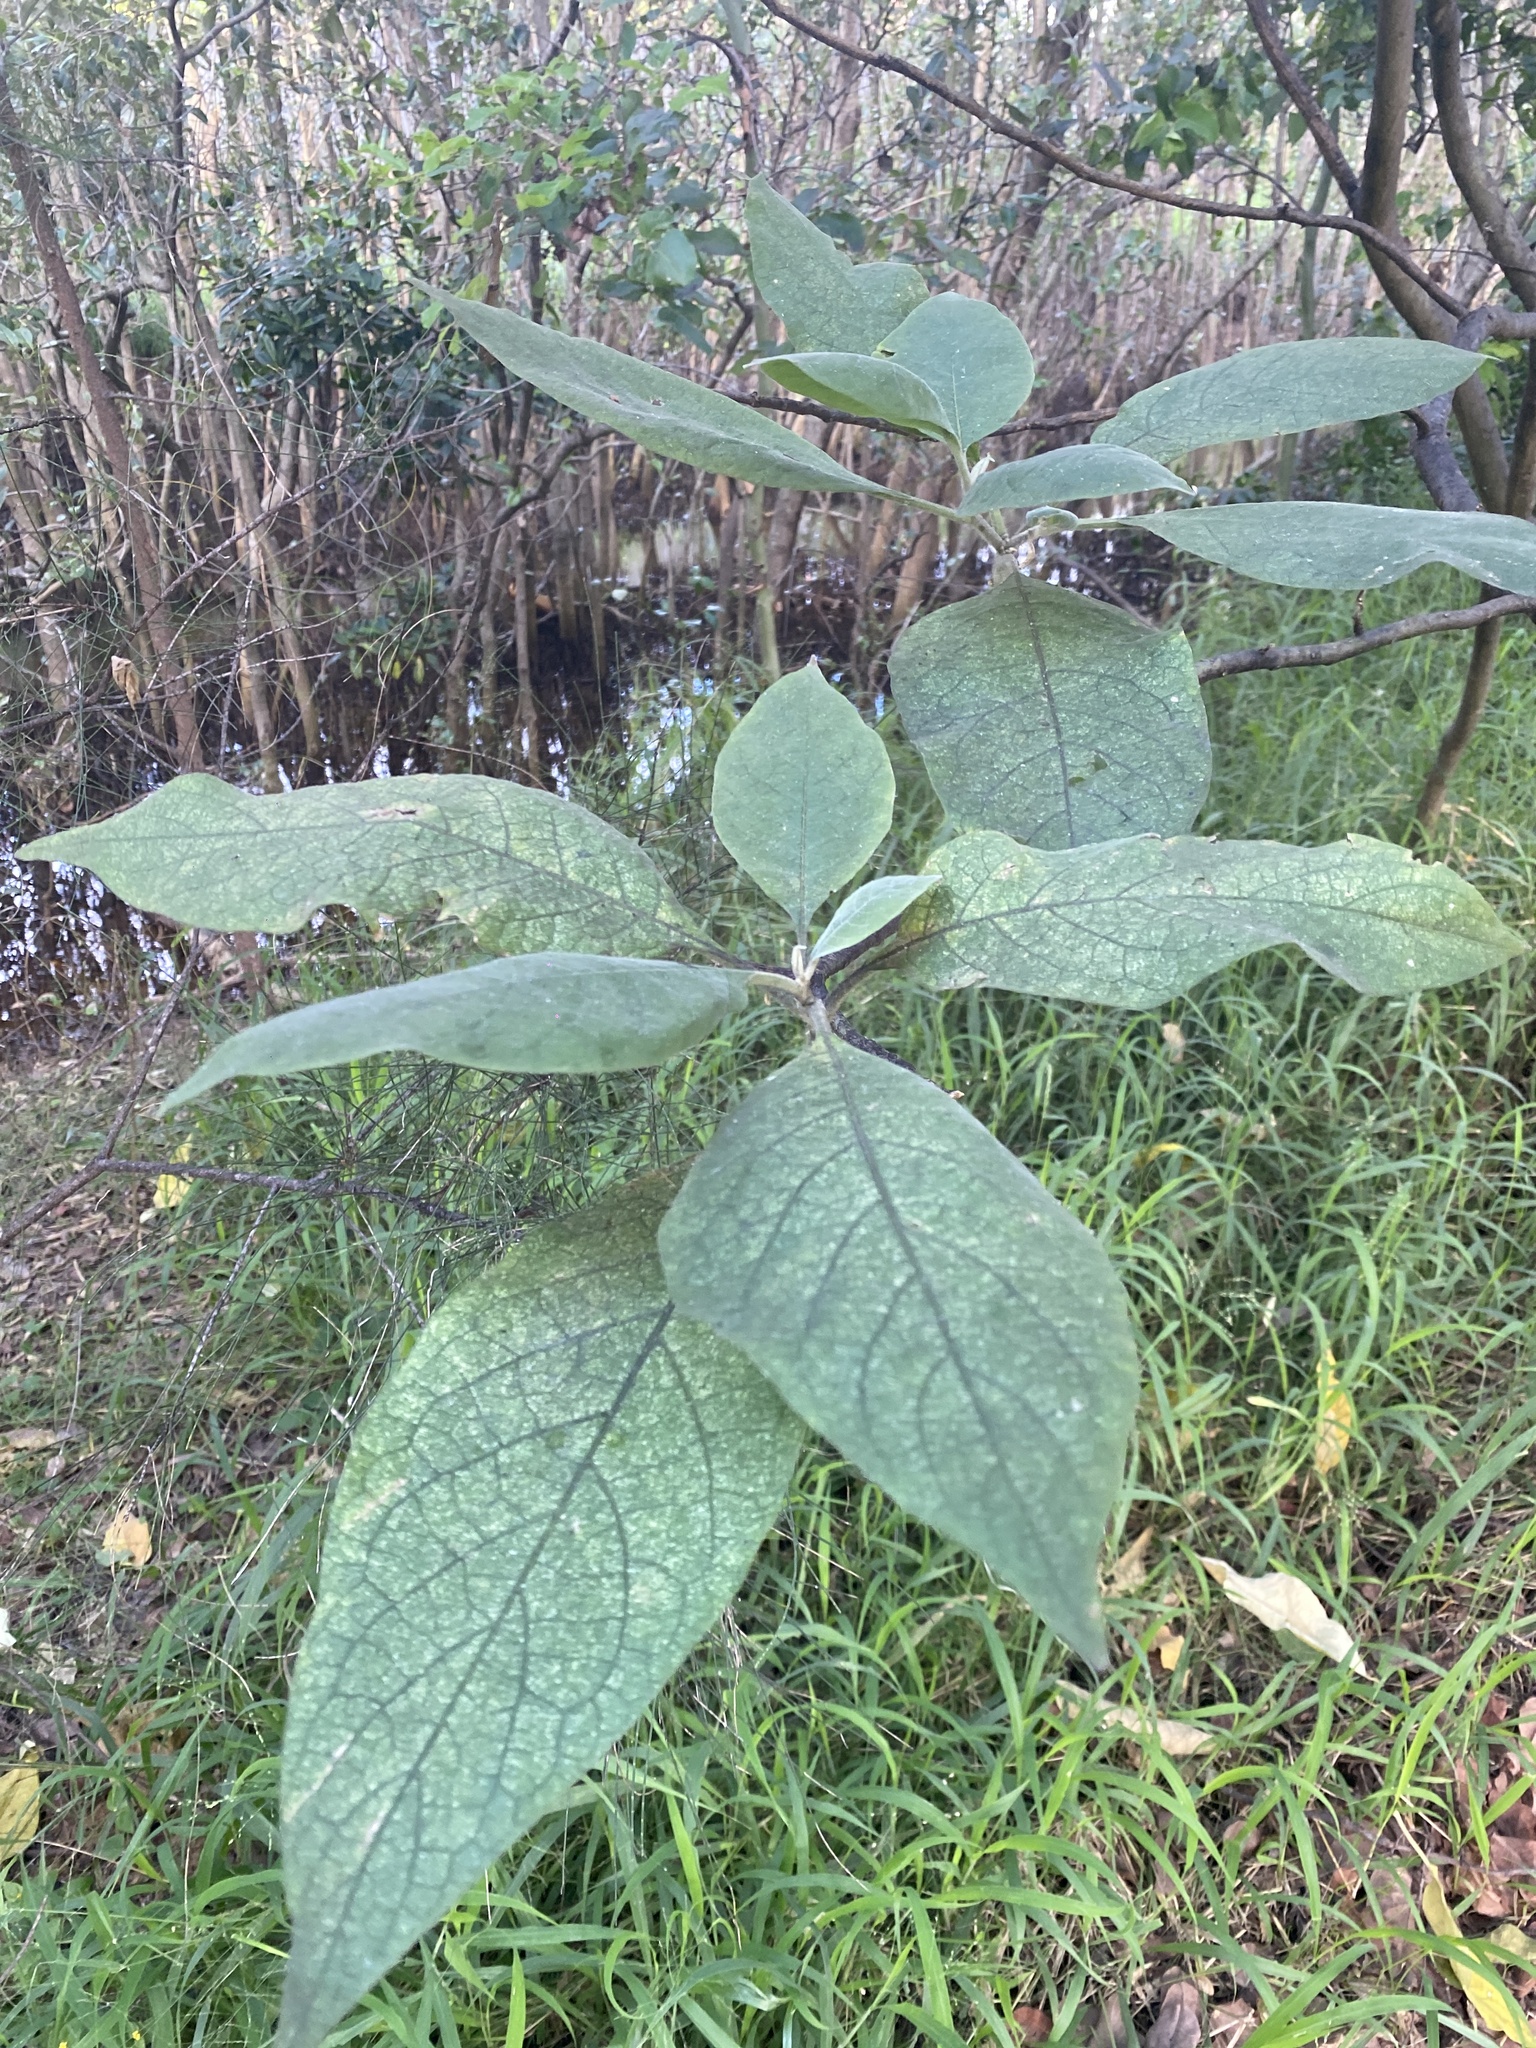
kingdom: Plantae
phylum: Tracheophyta
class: Magnoliopsida
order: Solanales
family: Solanaceae
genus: Solanum
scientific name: Solanum mauritianum
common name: Earleaf nightshade
